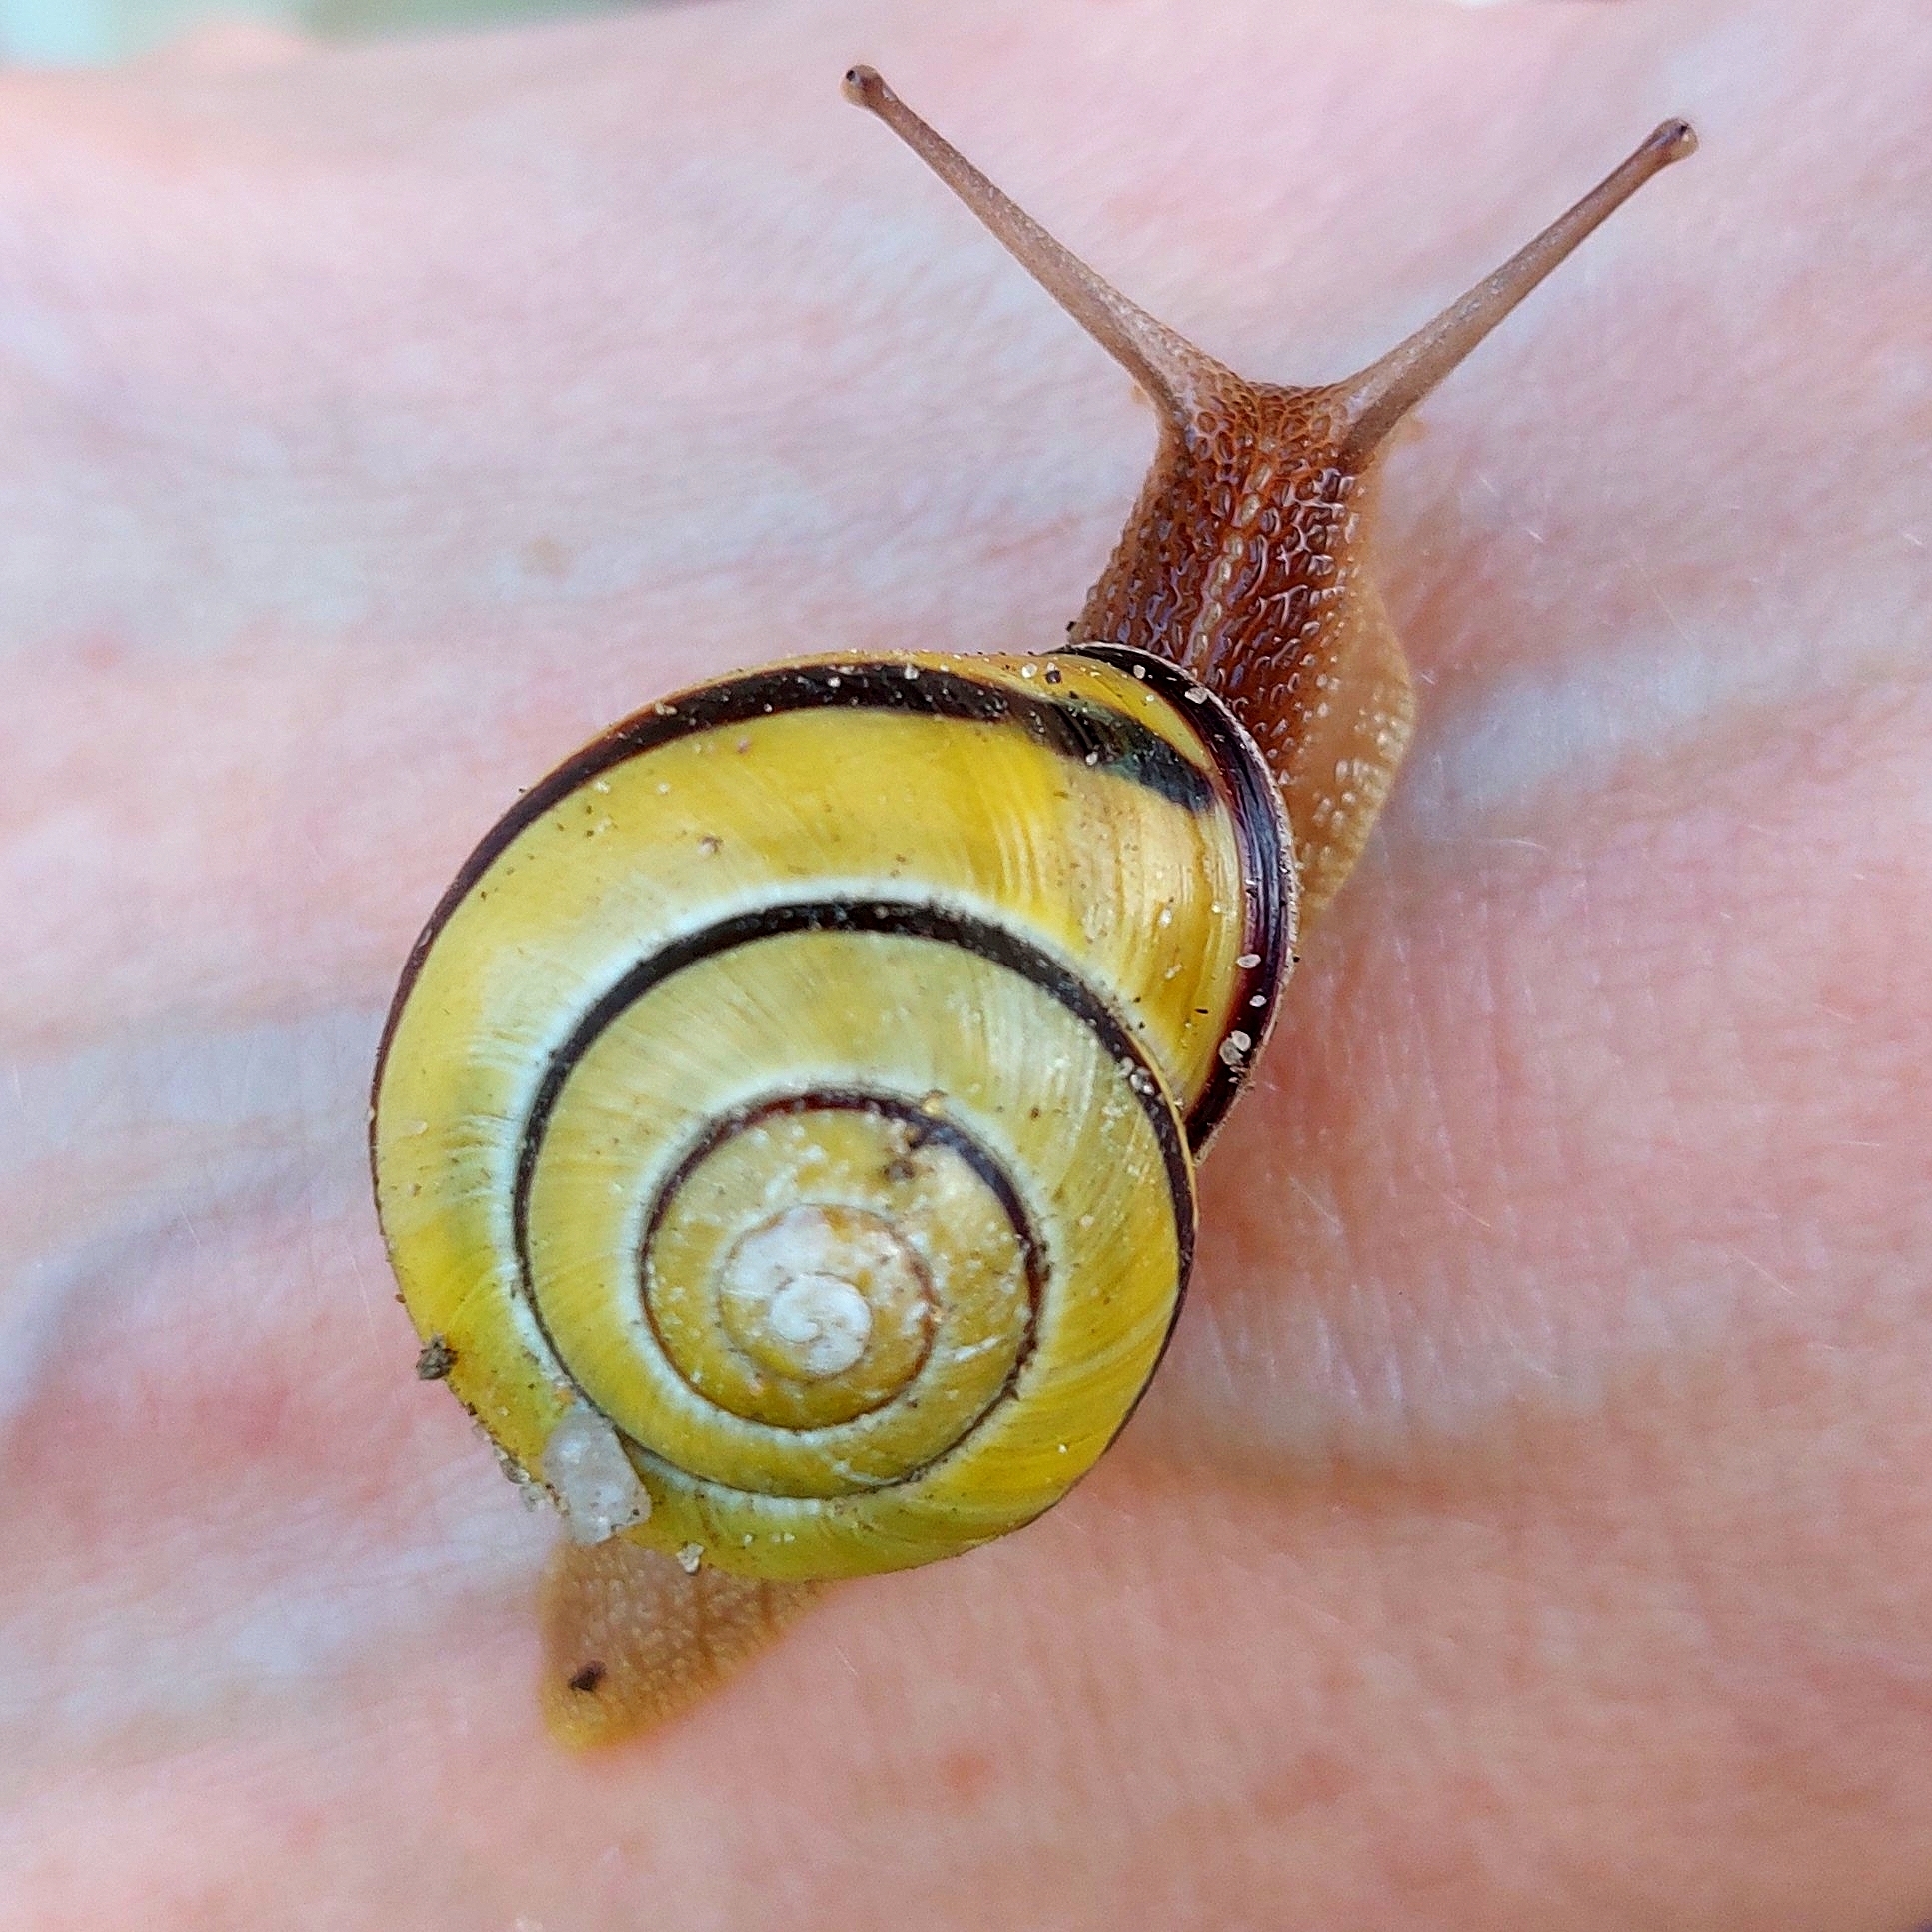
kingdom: Animalia
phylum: Mollusca
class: Gastropoda
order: Stylommatophora
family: Helicidae
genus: Cepaea
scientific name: Cepaea nemoralis
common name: Grovesnail
